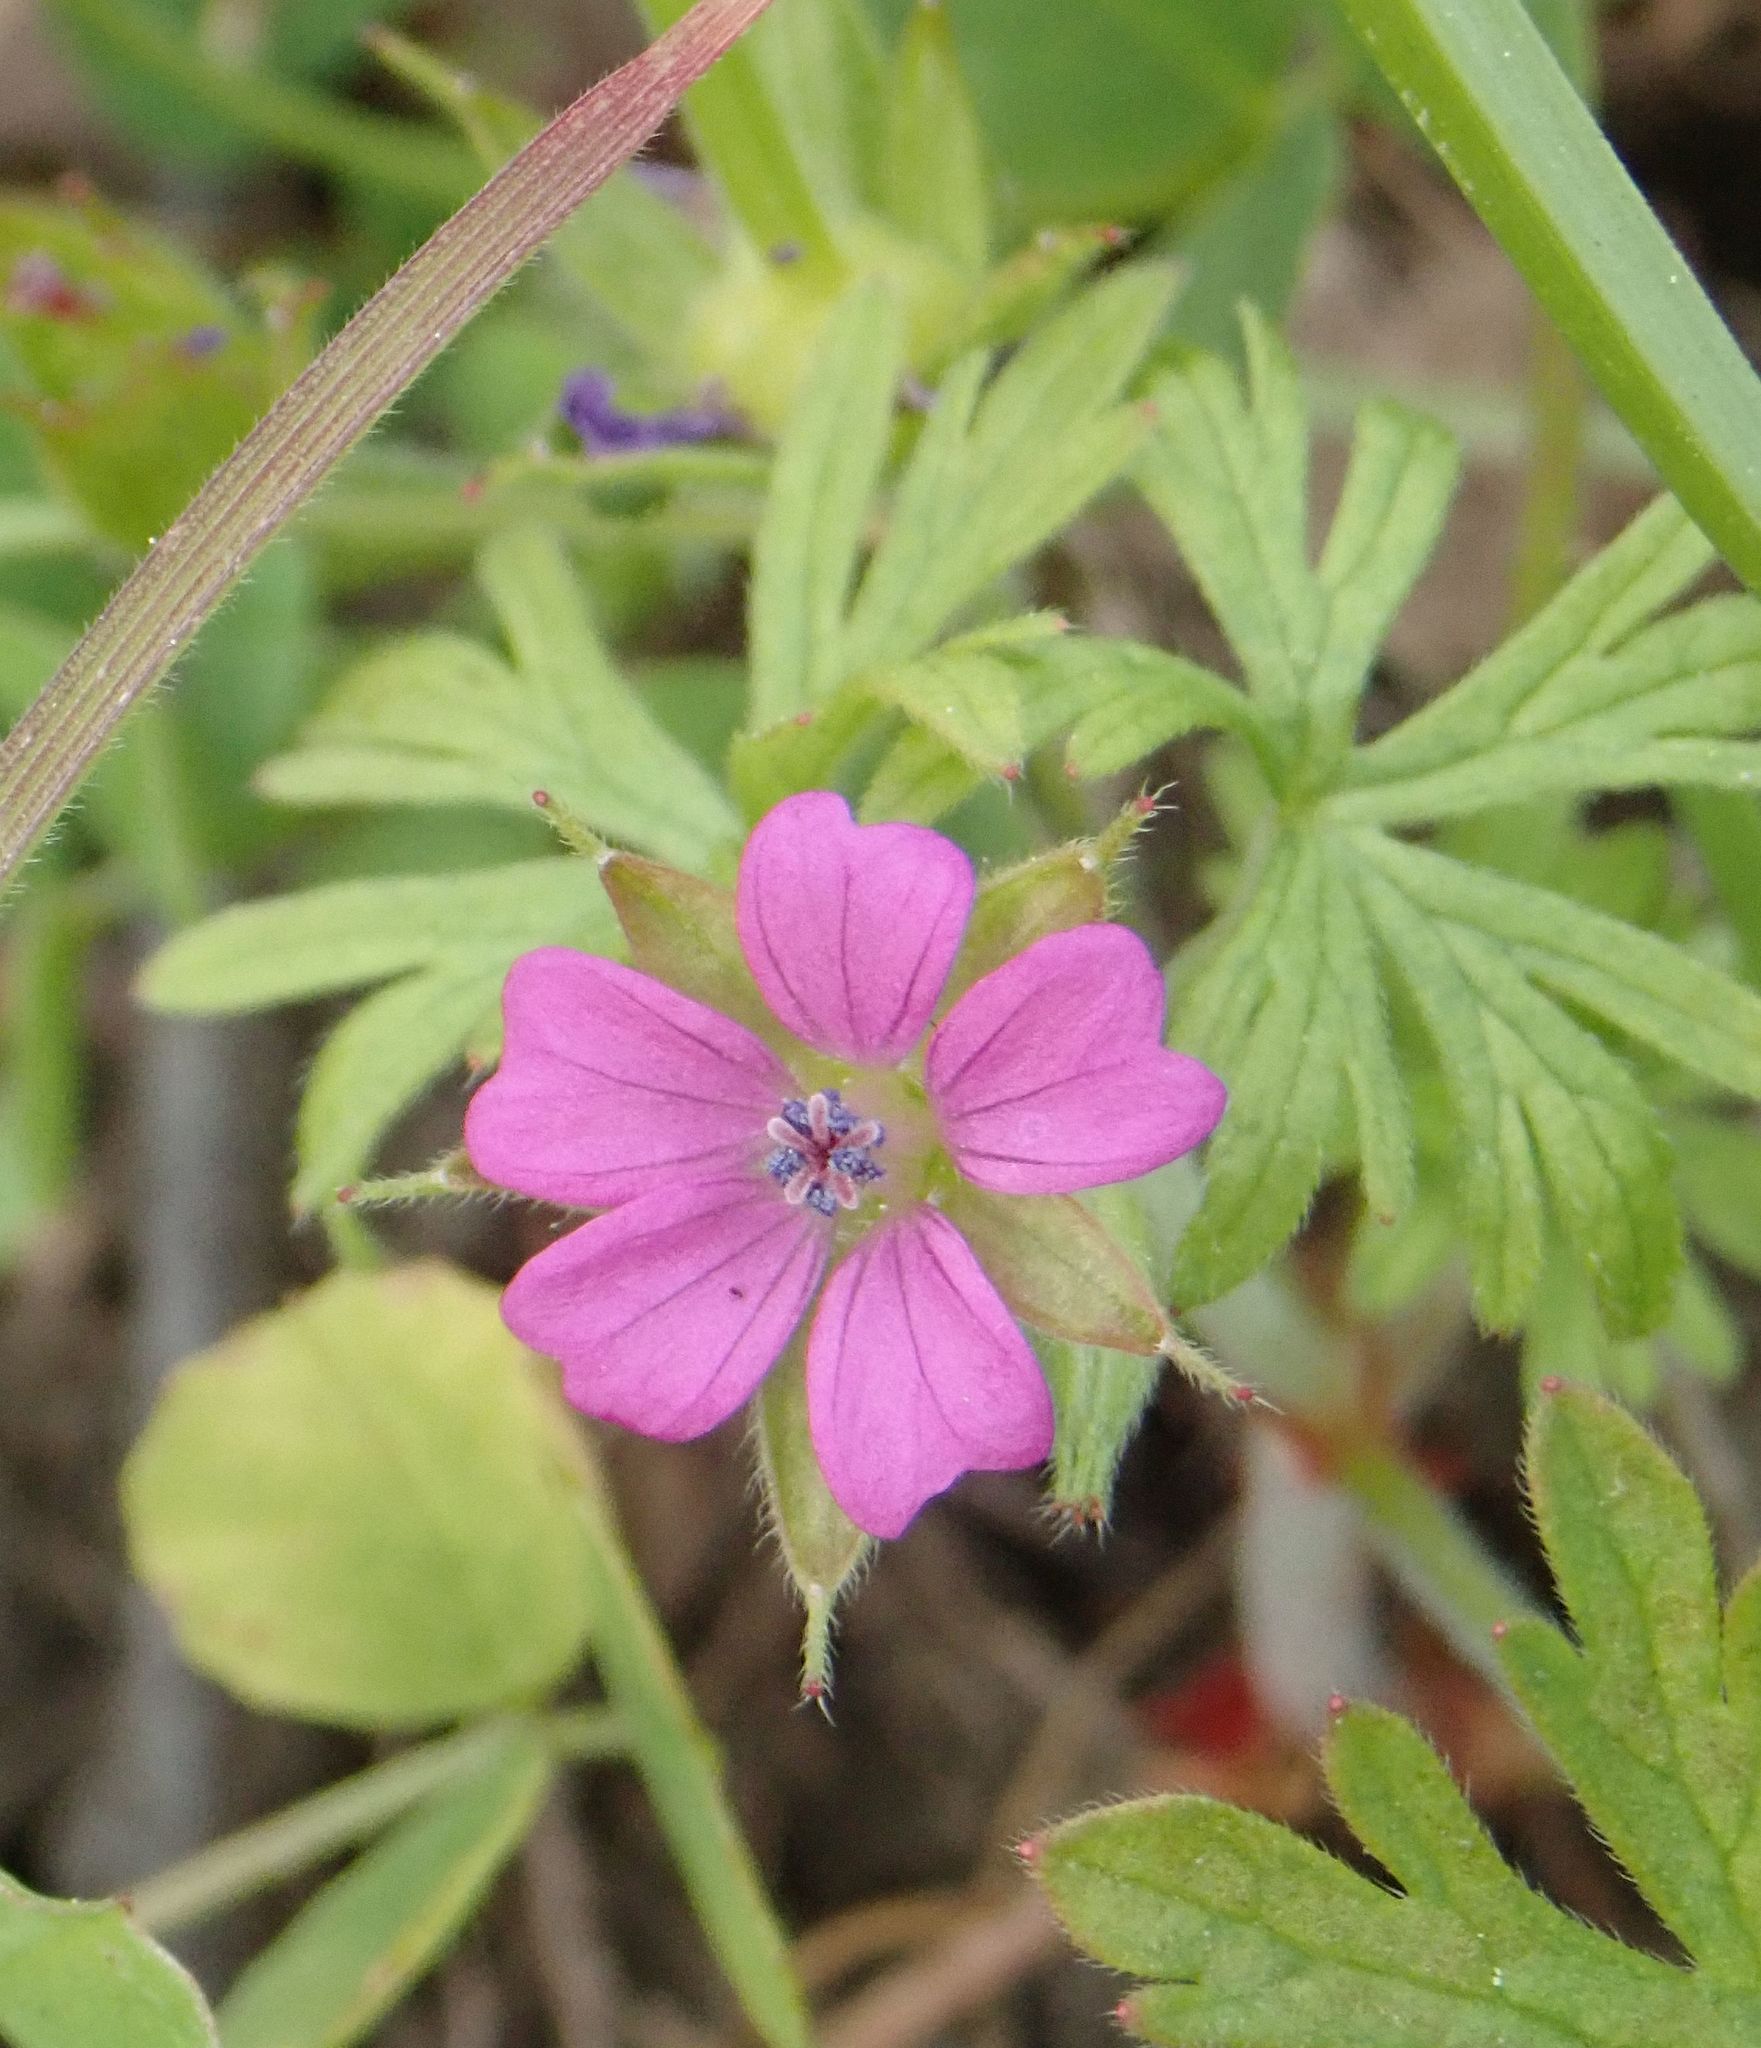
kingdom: Plantae
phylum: Tracheophyta
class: Magnoliopsida
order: Geraniales
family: Geraniaceae
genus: Geranium
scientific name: Geranium dissectum
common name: Cut-leaved crane's-bill
